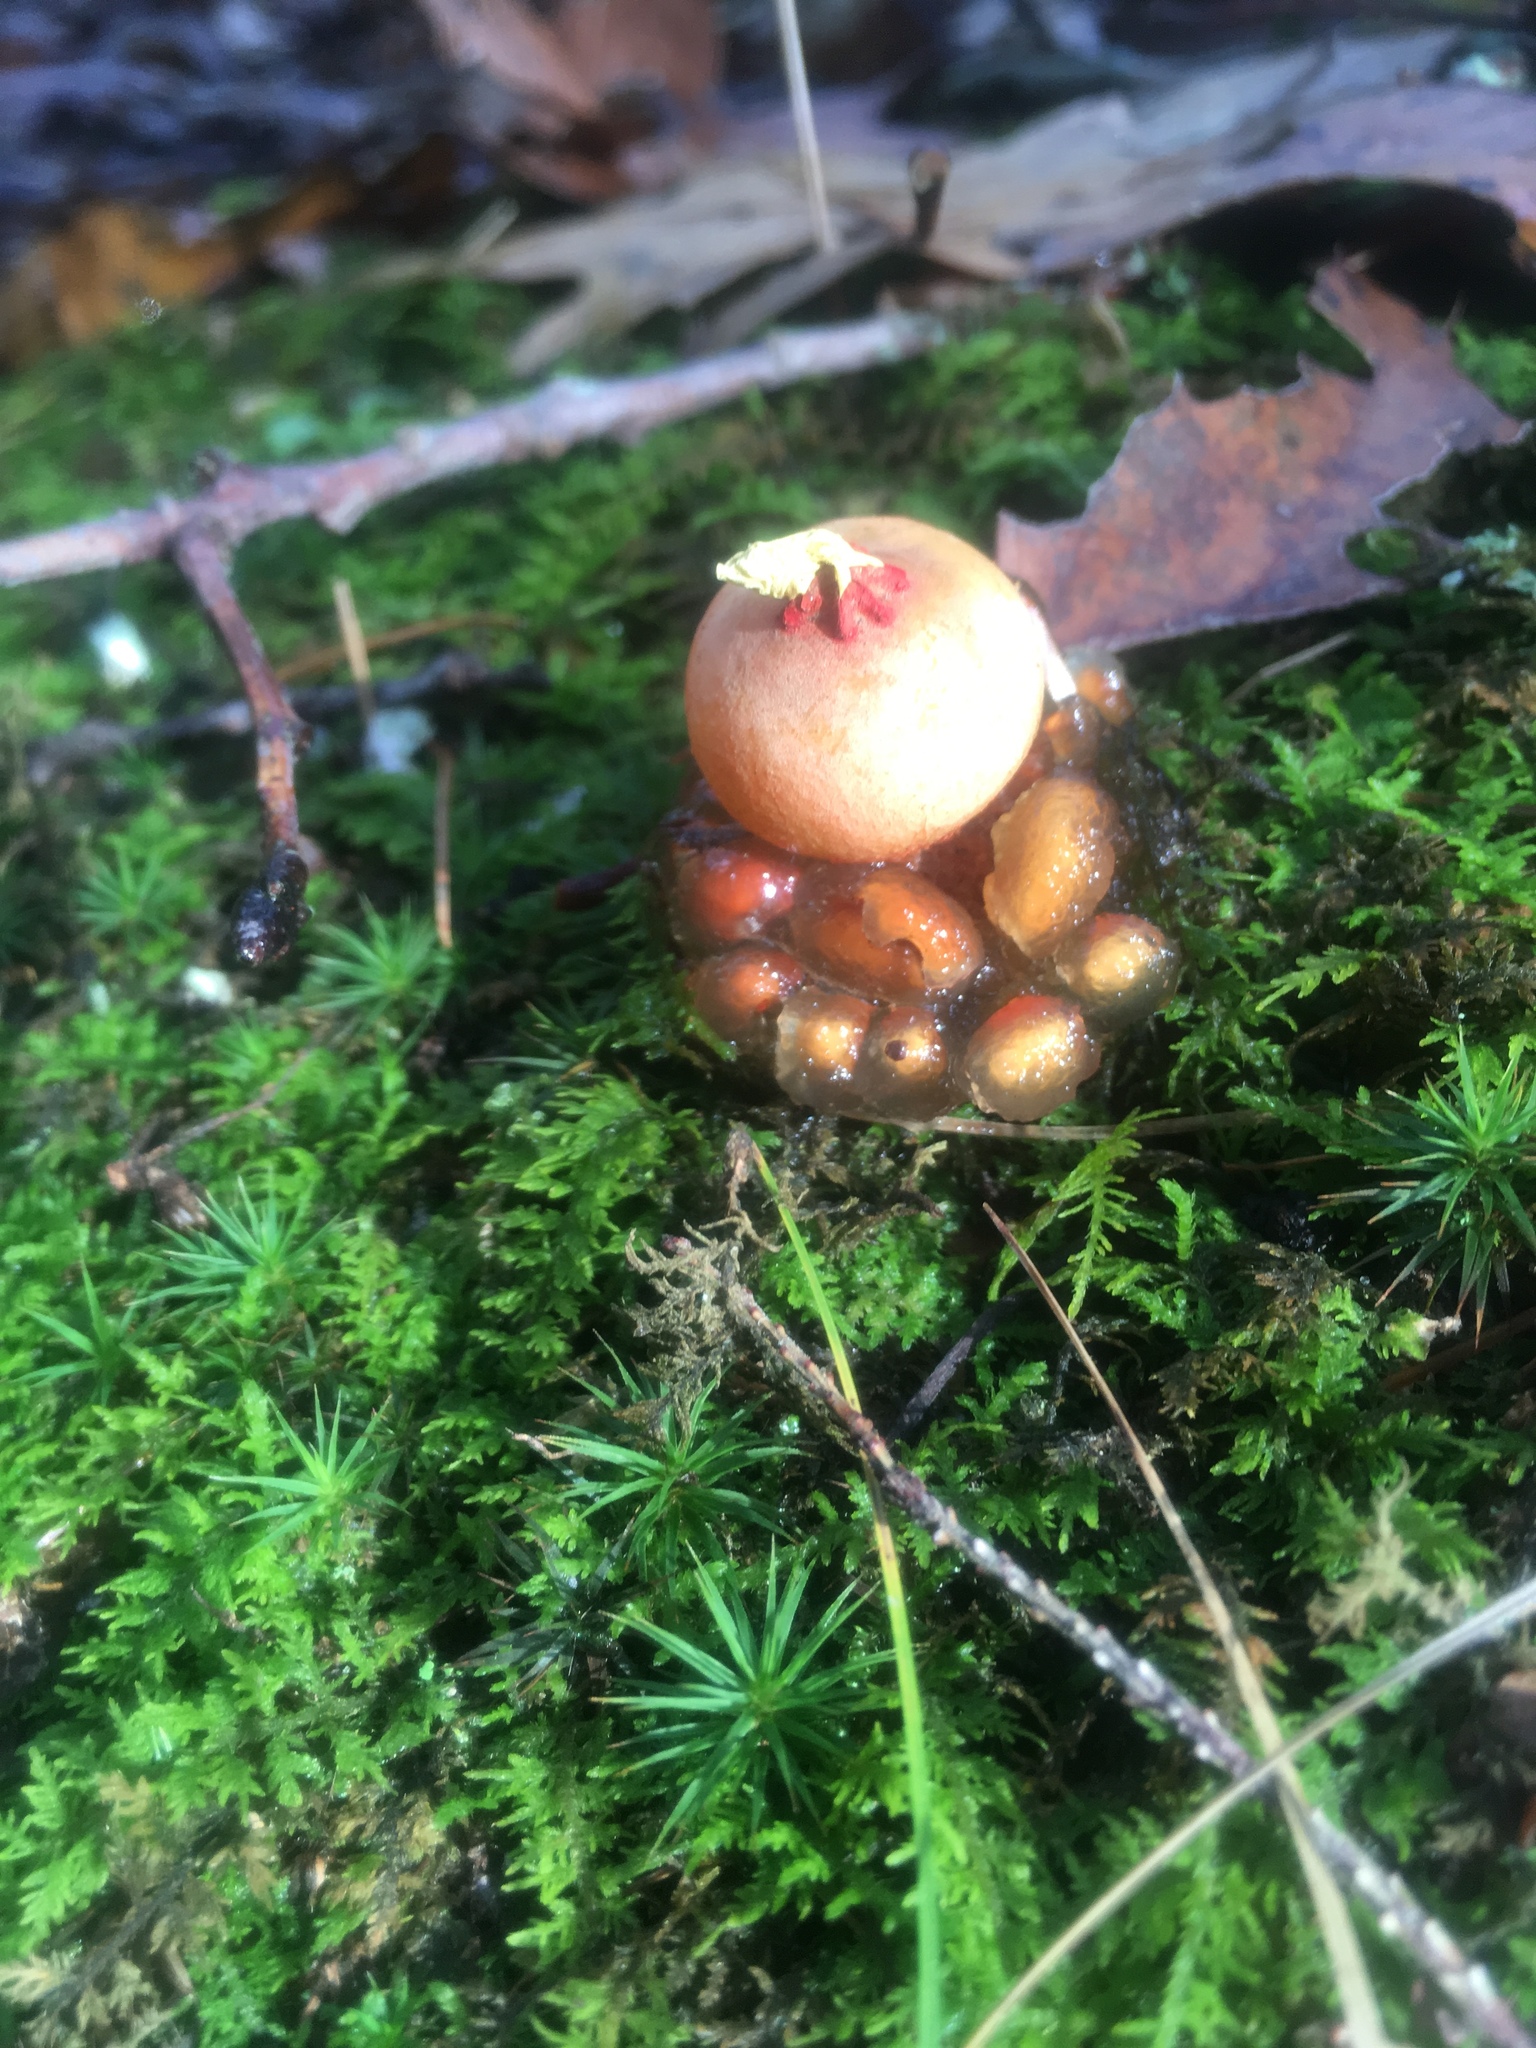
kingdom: Fungi
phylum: Basidiomycota
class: Agaricomycetes
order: Boletales
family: Calostomataceae
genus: Calostoma
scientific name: Calostoma cinnabarinum
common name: Stalked puffball-in-aspic
